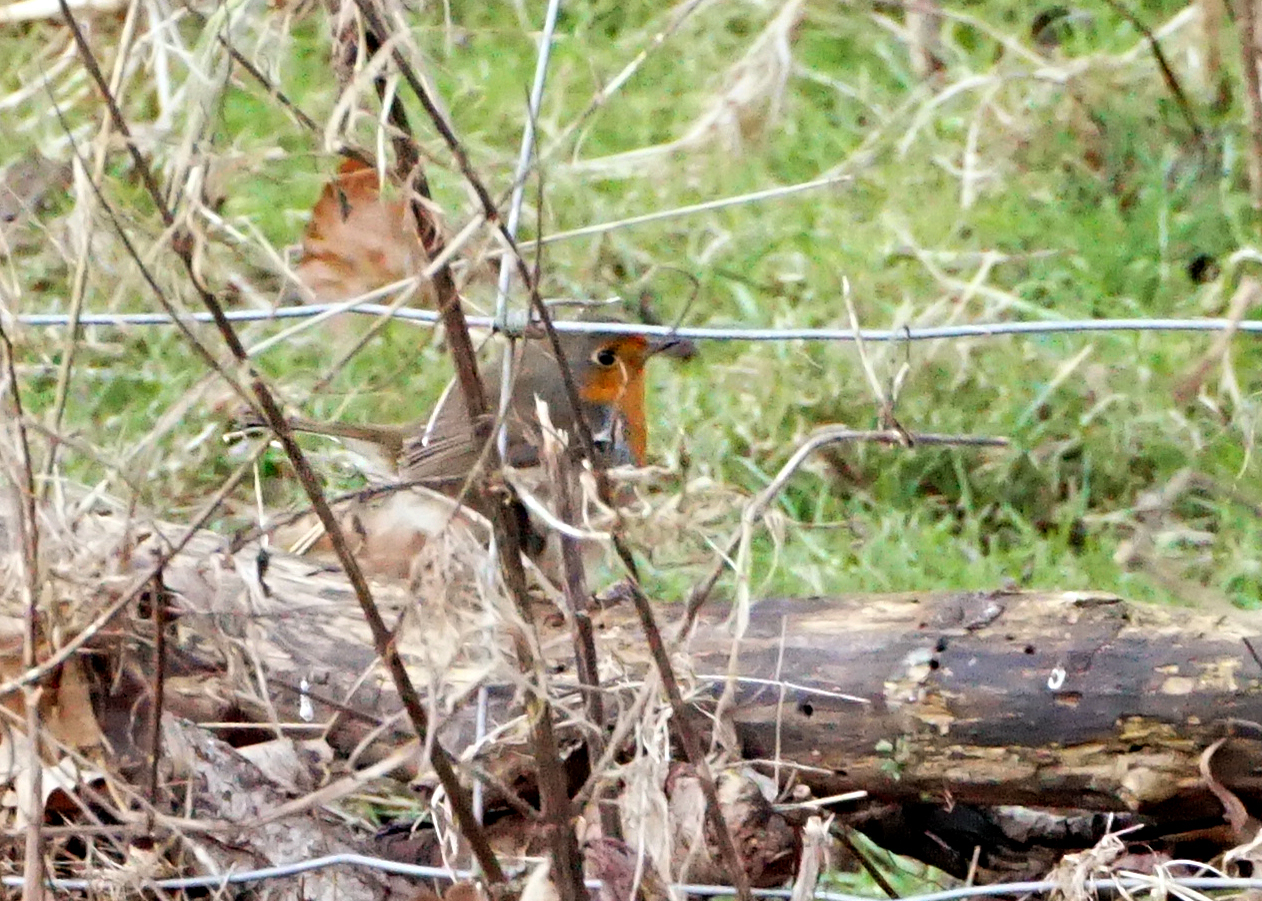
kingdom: Animalia
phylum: Chordata
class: Aves
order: Passeriformes
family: Muscicapidae
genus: Erithacus
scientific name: Erithacus rubecula
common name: European robin
